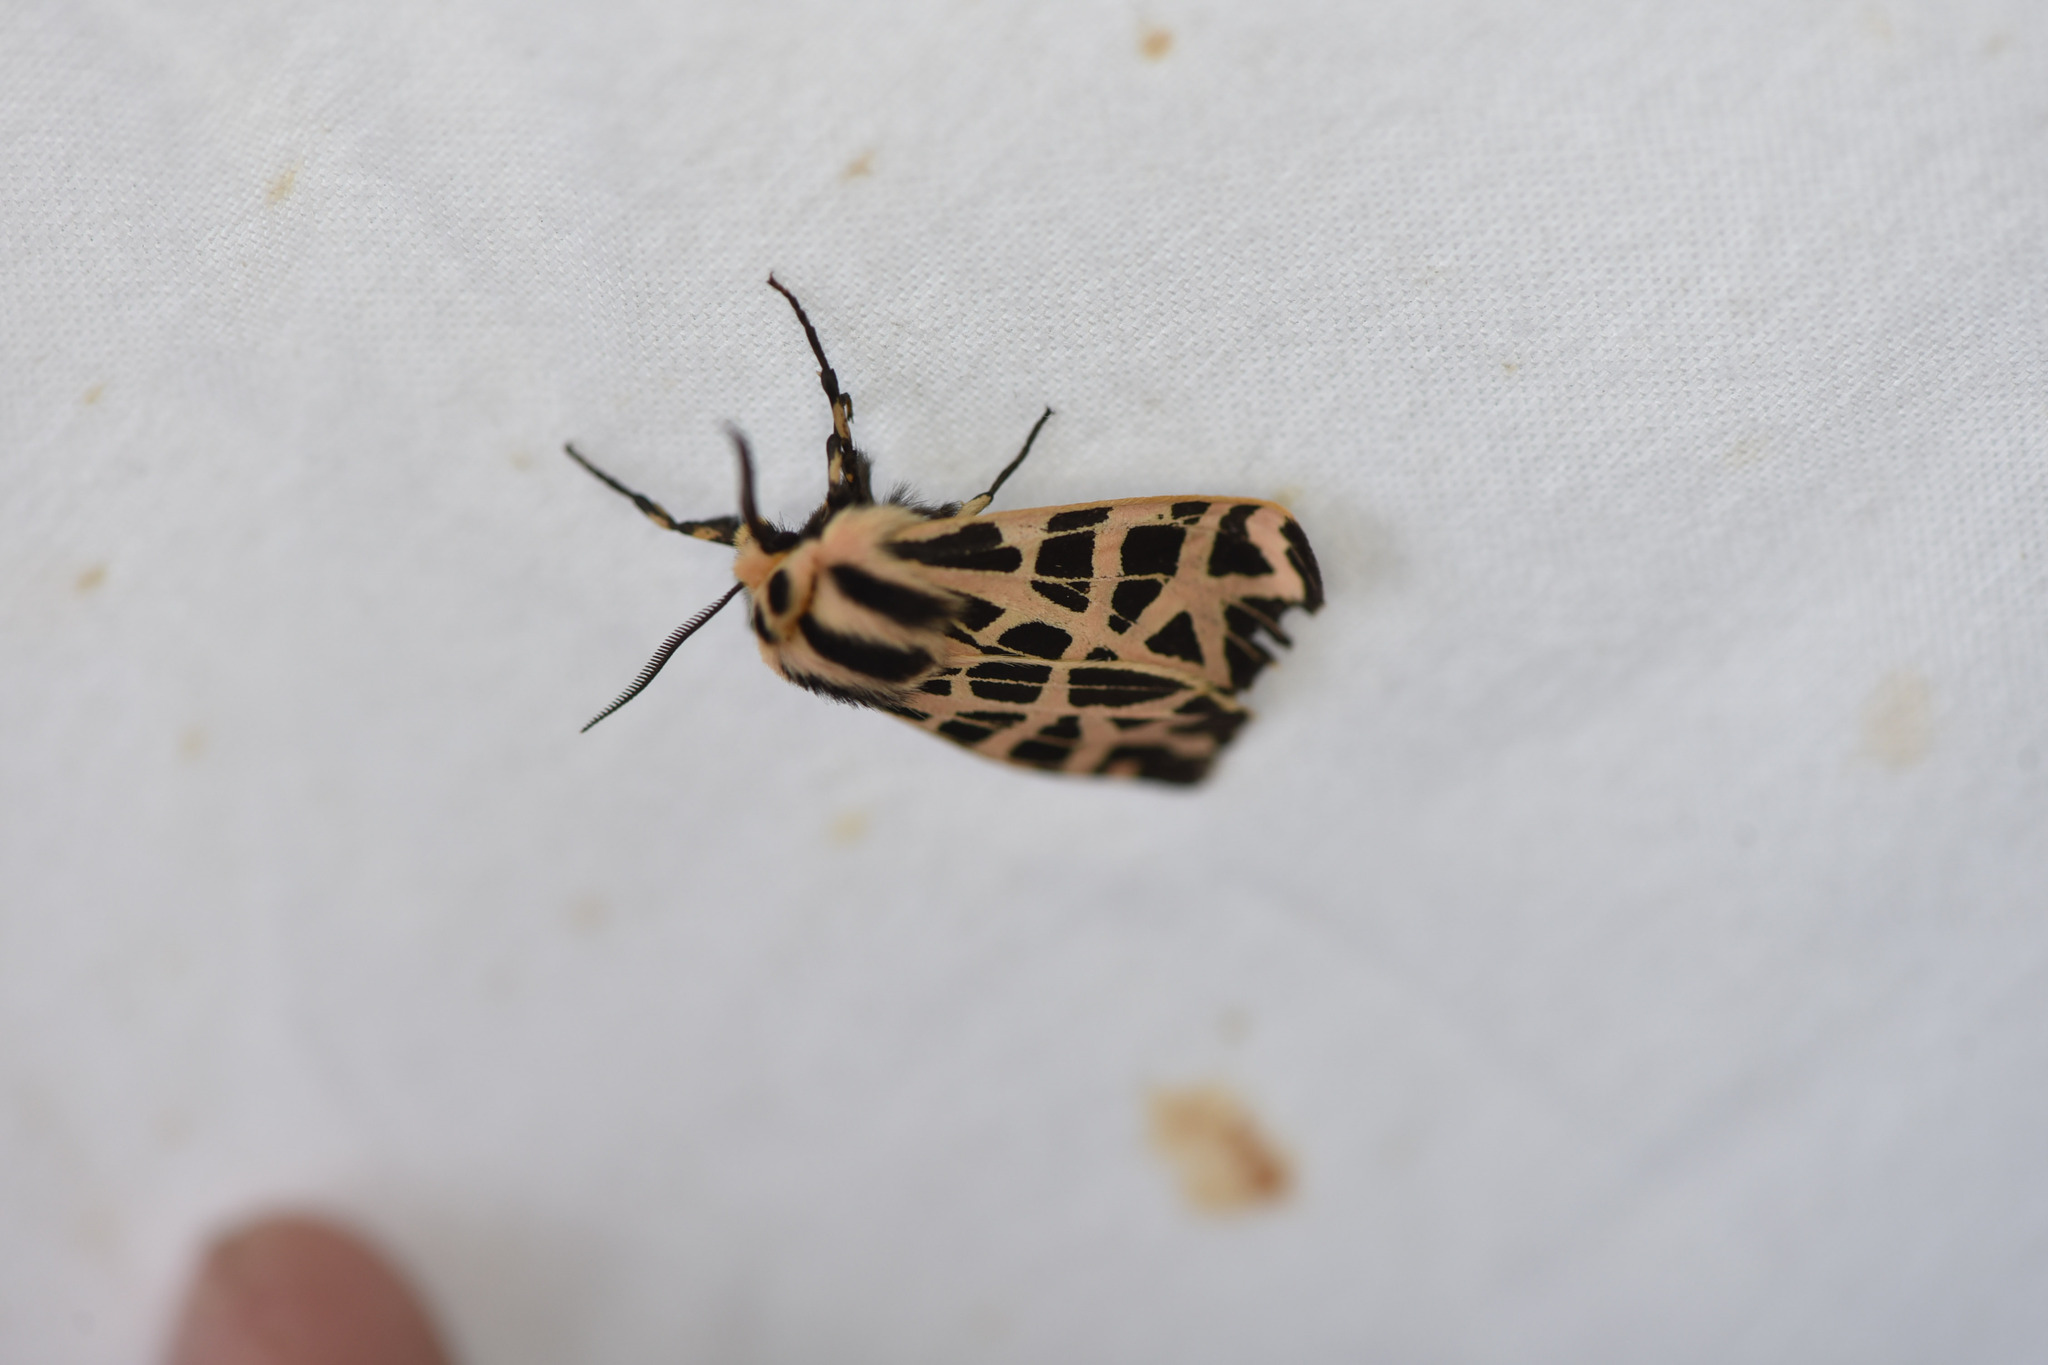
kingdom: Animalia
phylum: Arthropoda
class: Insecta
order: Lepidoptera
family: Erebidae
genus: Apantesis
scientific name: Apantesis
